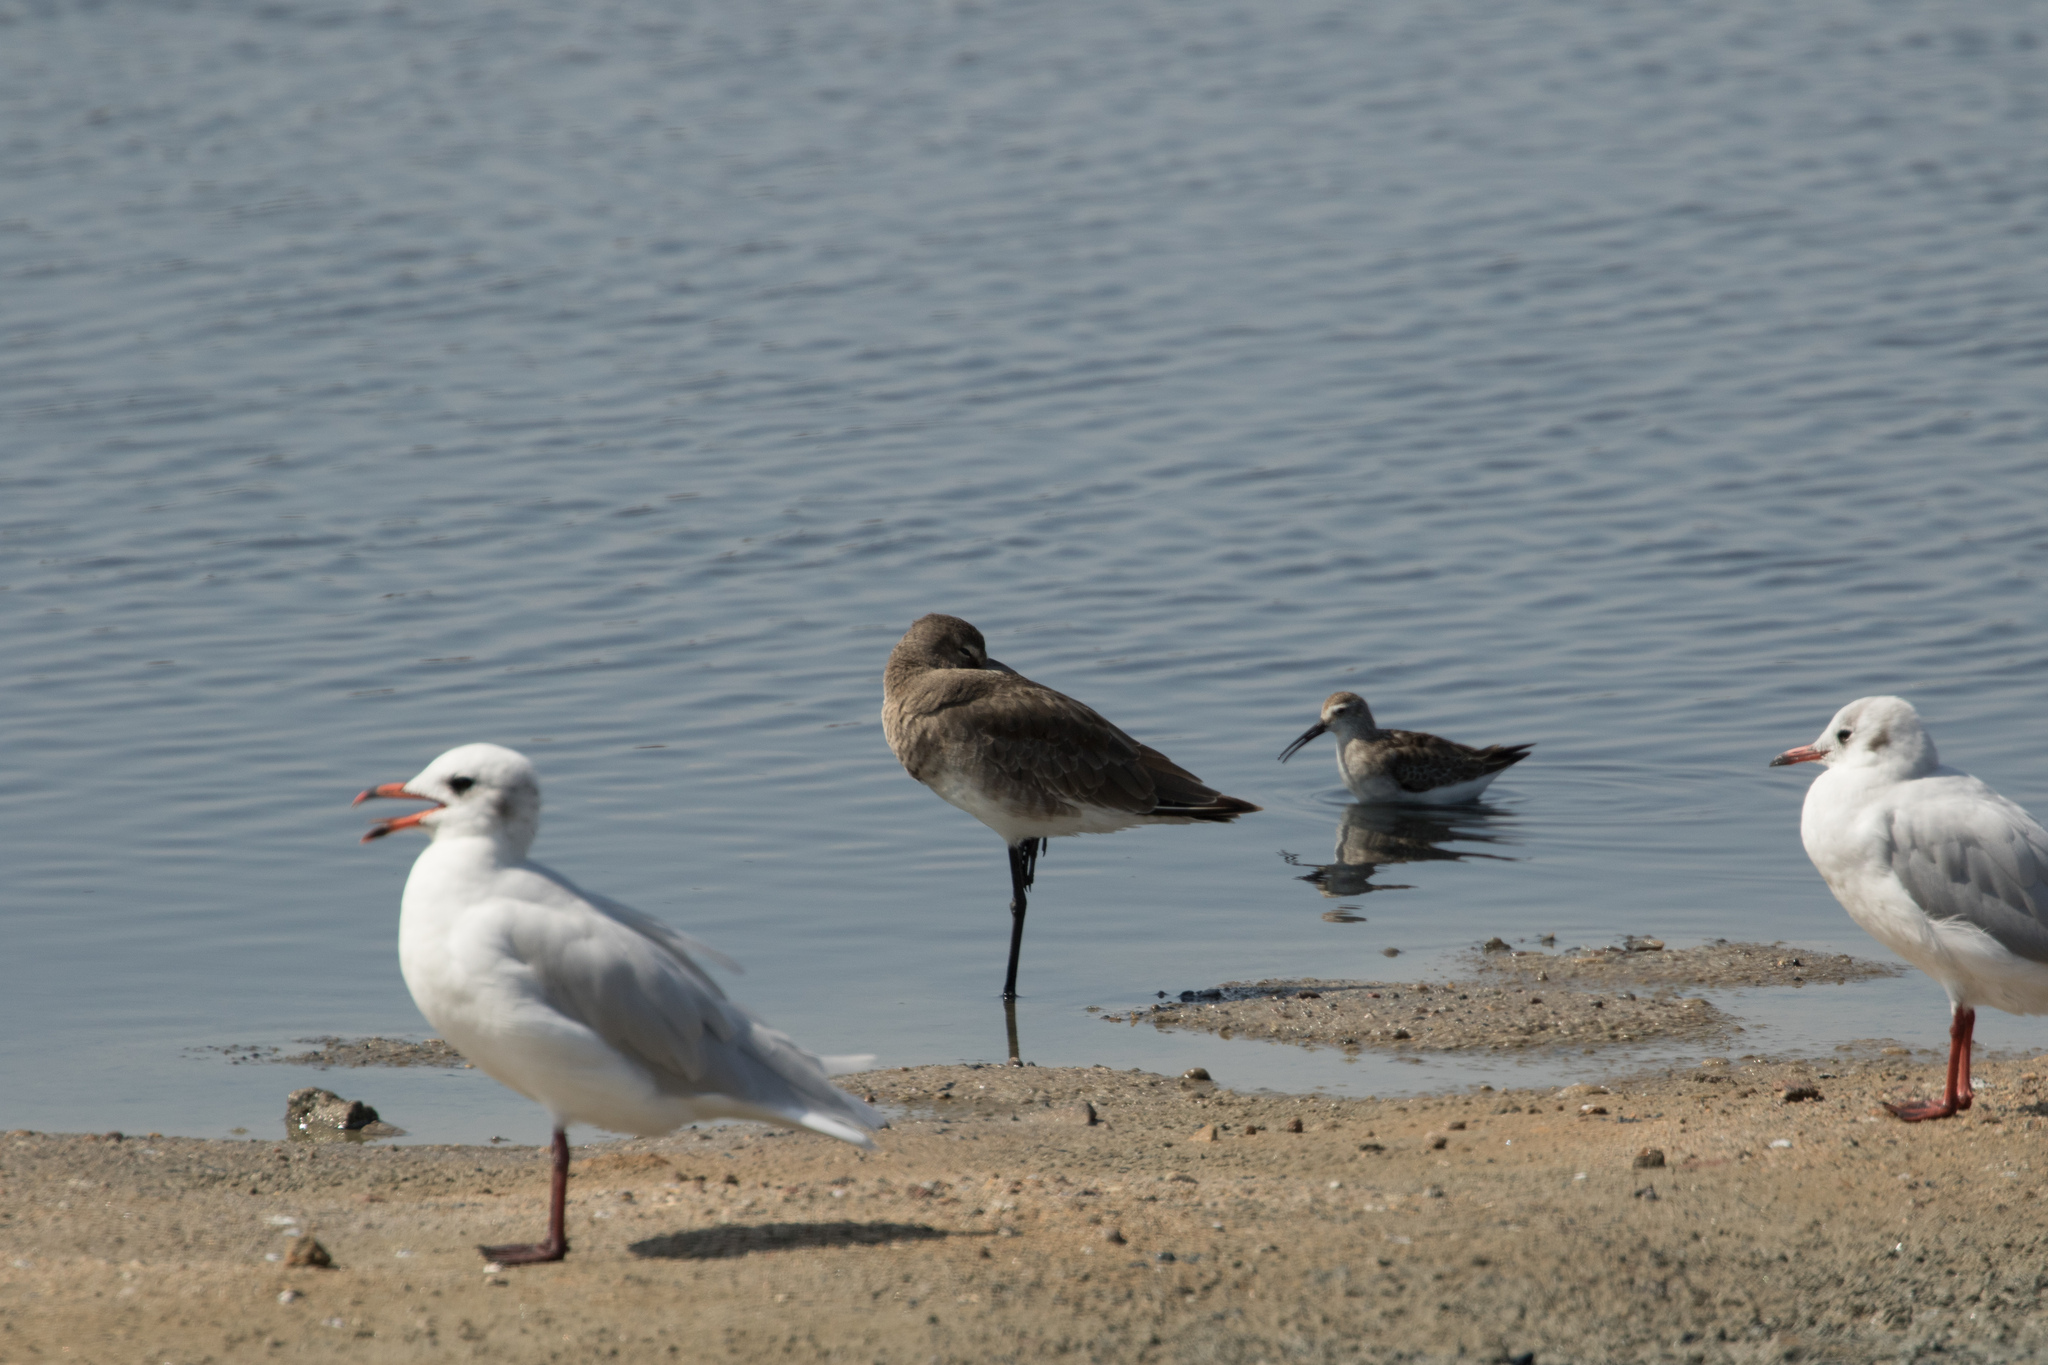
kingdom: Animalia
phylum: Chordata
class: Aves
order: Charadriiformes
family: Scolopacidae
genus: Calidris
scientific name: Calidris ferruginea
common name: Curlew sandpiper
